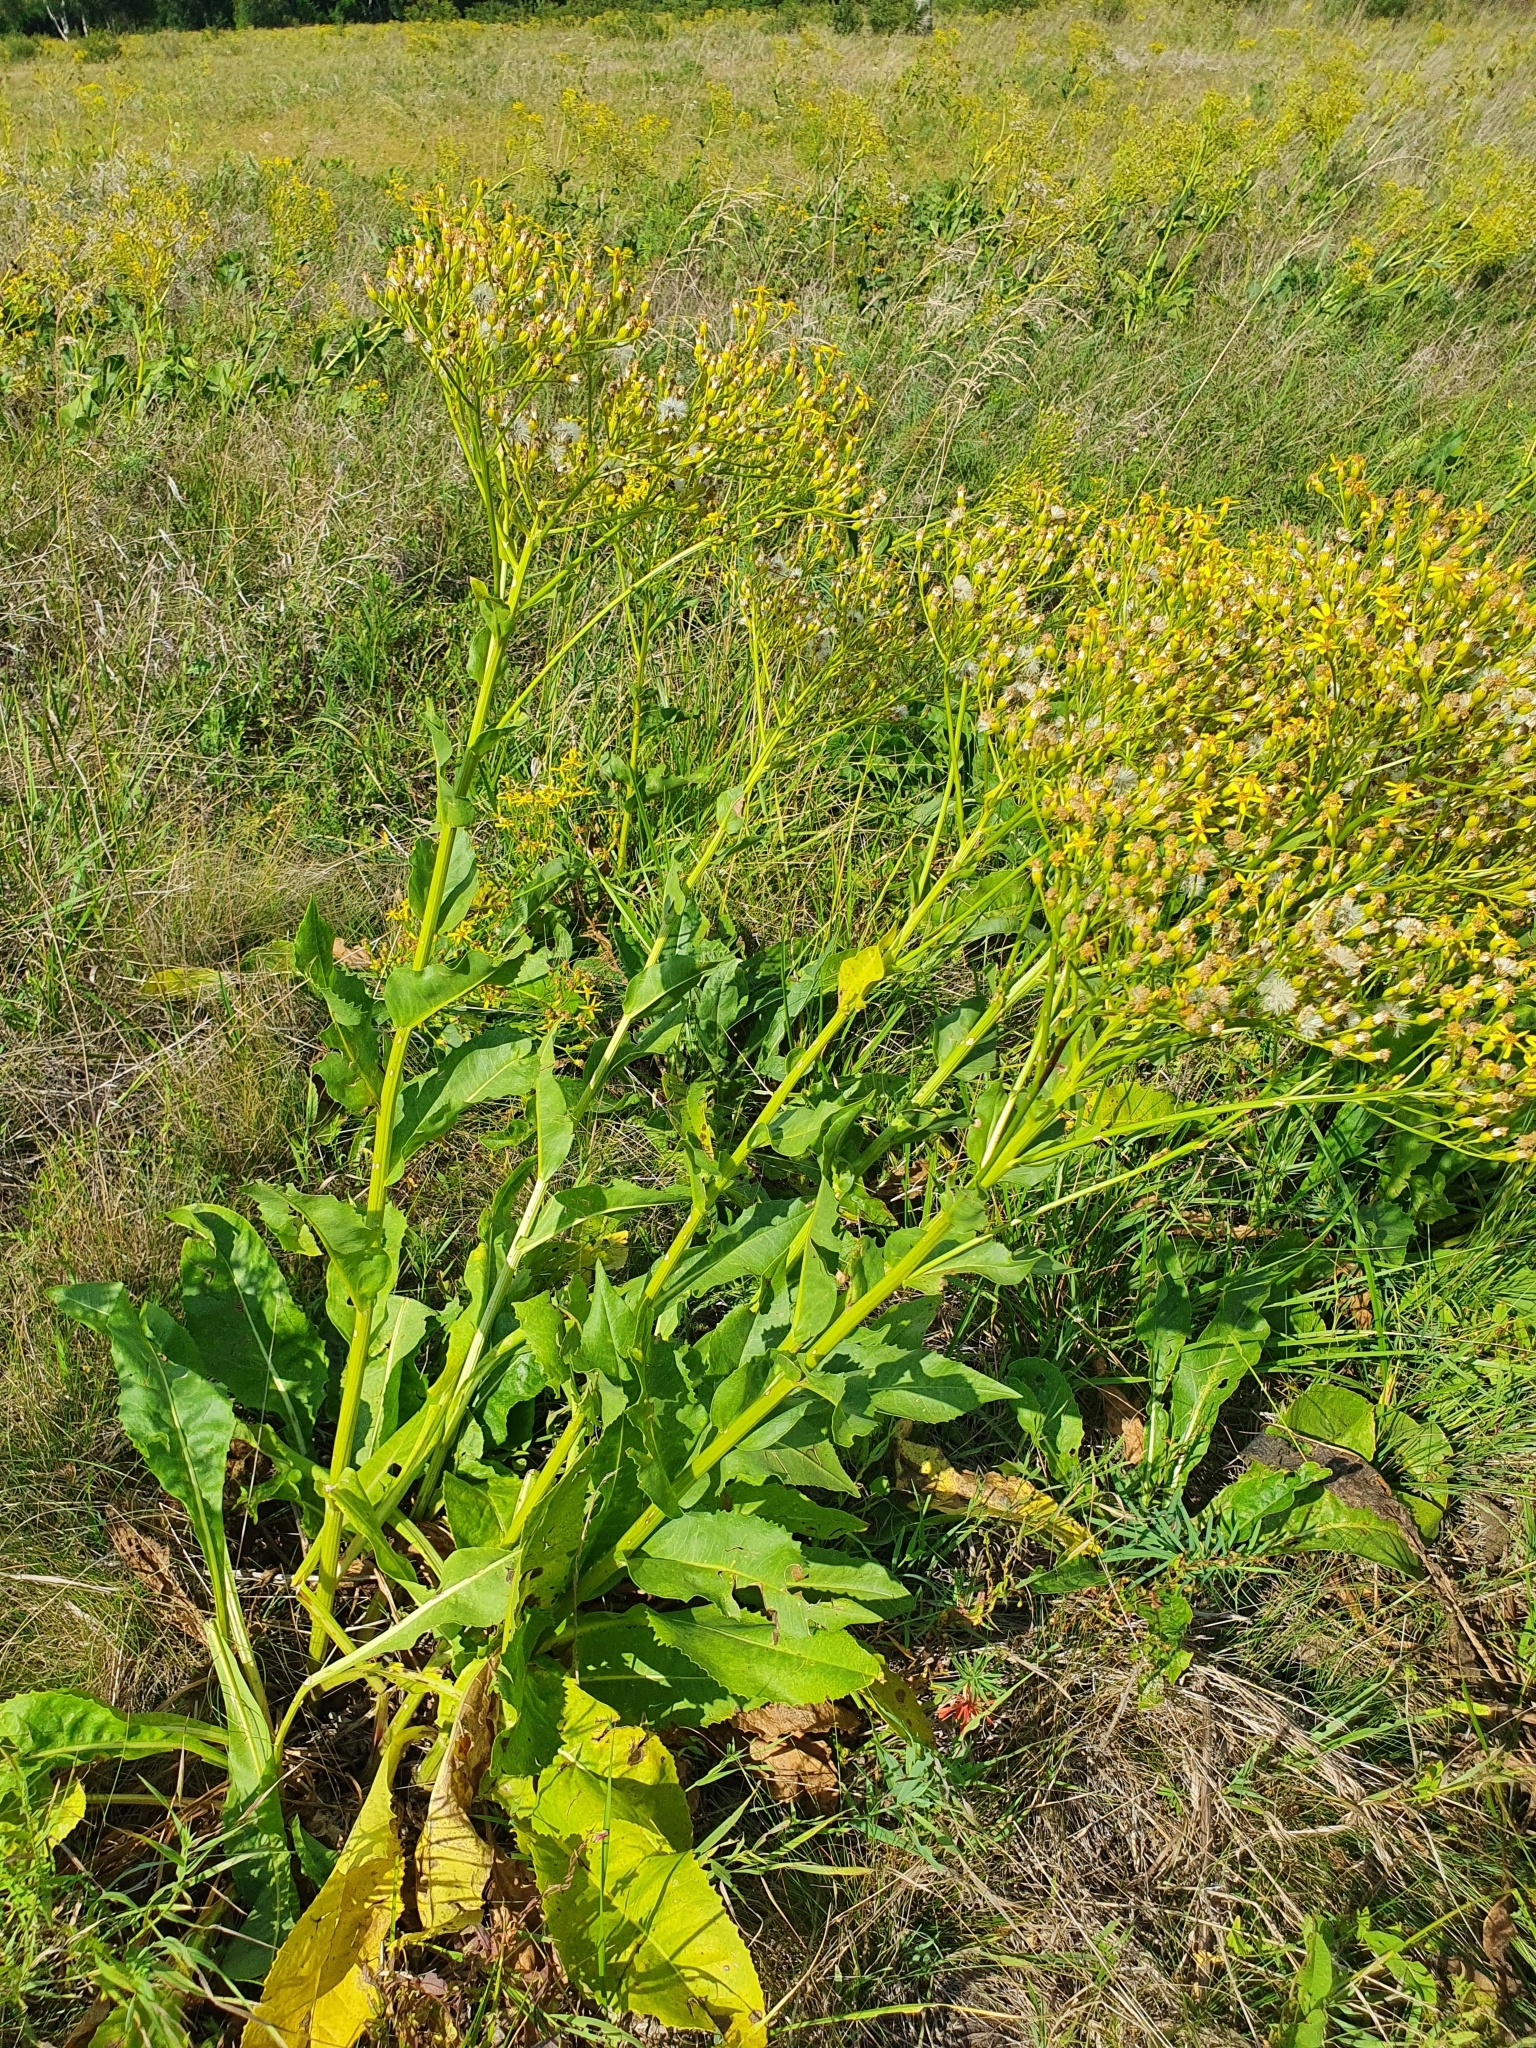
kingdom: Plantae
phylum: Tracheophyta
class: Magnoliopsida
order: Asterales
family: Asteraceae
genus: Senecio
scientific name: Senecio doria
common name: Golden ragwort
